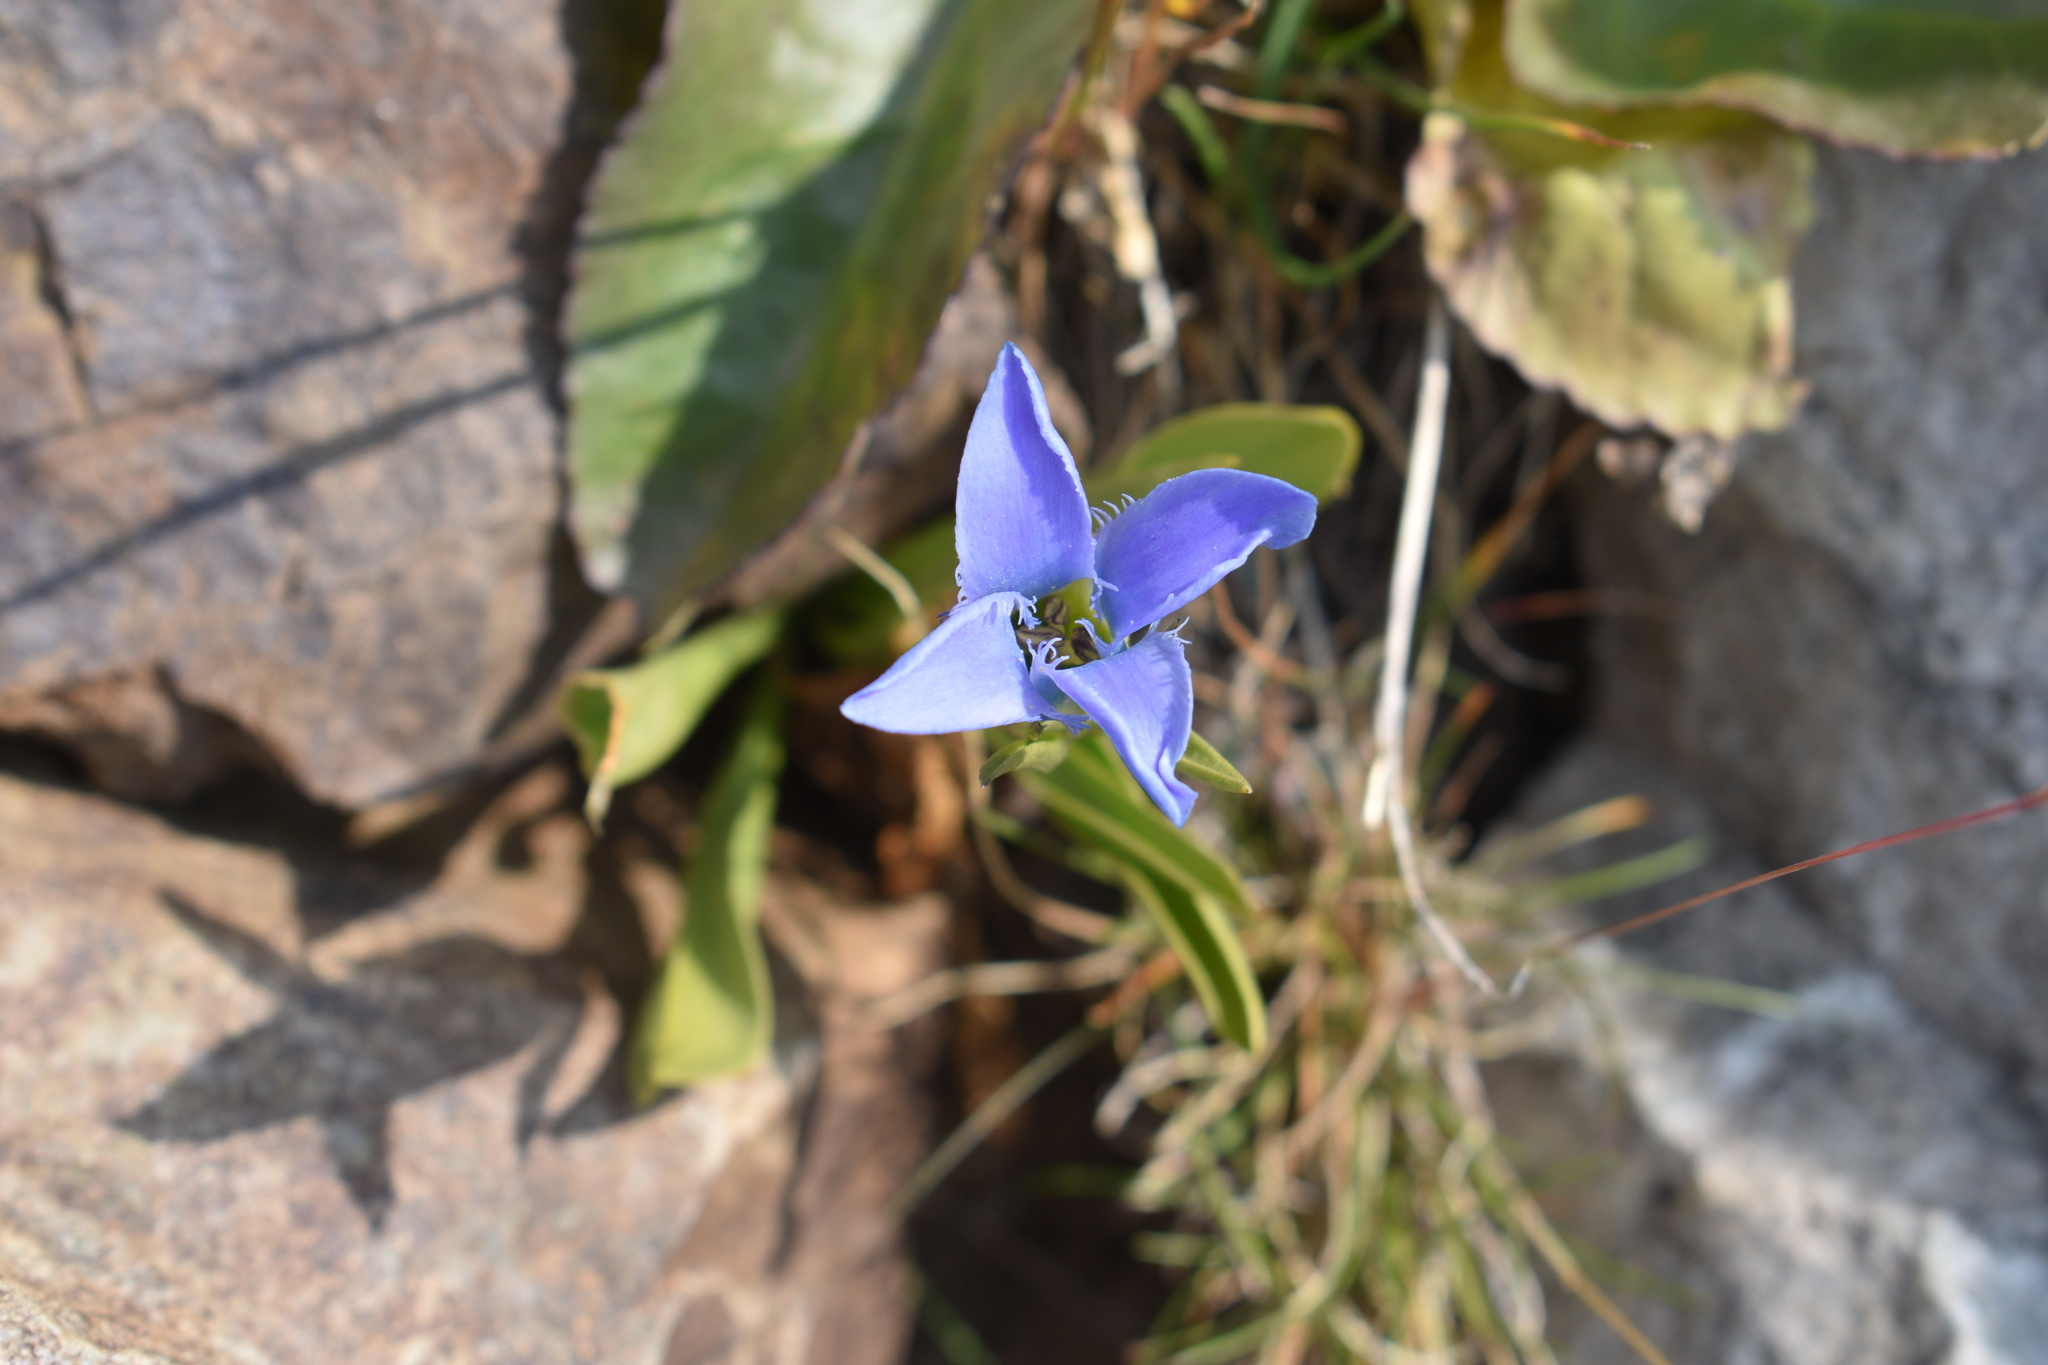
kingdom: Plantae
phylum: Tracheophyta
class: Magnoliopsida
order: Gentianales
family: Gentianaceae
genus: Gentianopsis
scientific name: Gentianopsis barbellata
